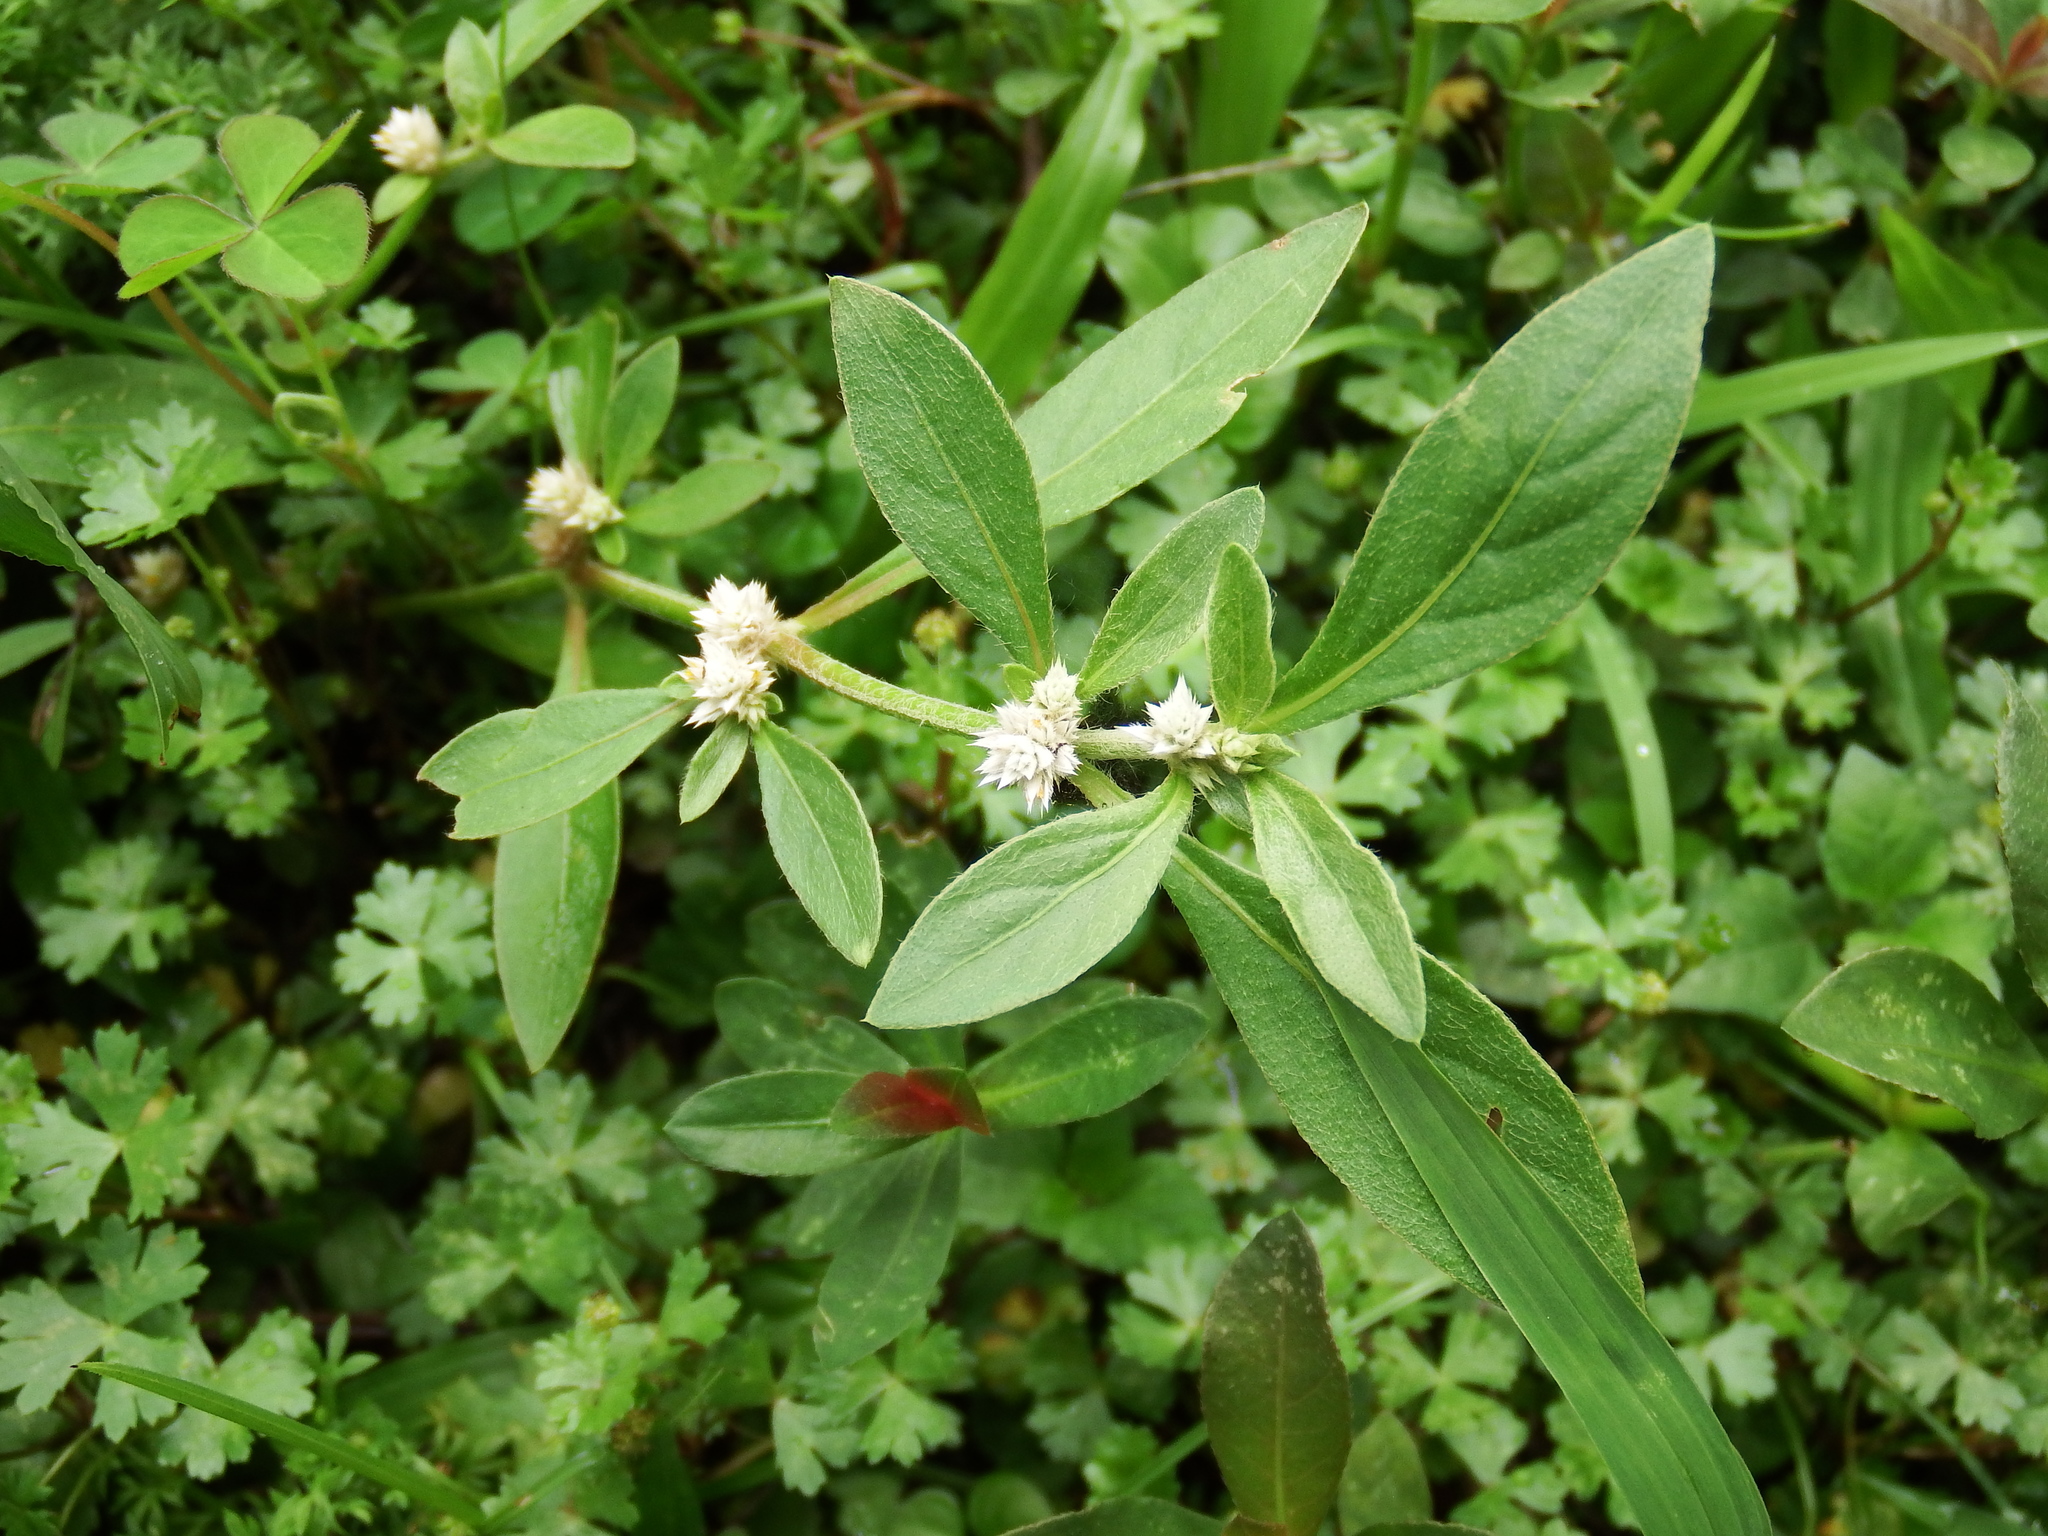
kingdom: Plantae
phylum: Tracheophyta
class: Magnoliopsida
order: Caryophyllales
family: Amaranthaceae
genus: Alternanthera
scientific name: Alternanthera bettzickiana
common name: Calico-plant
